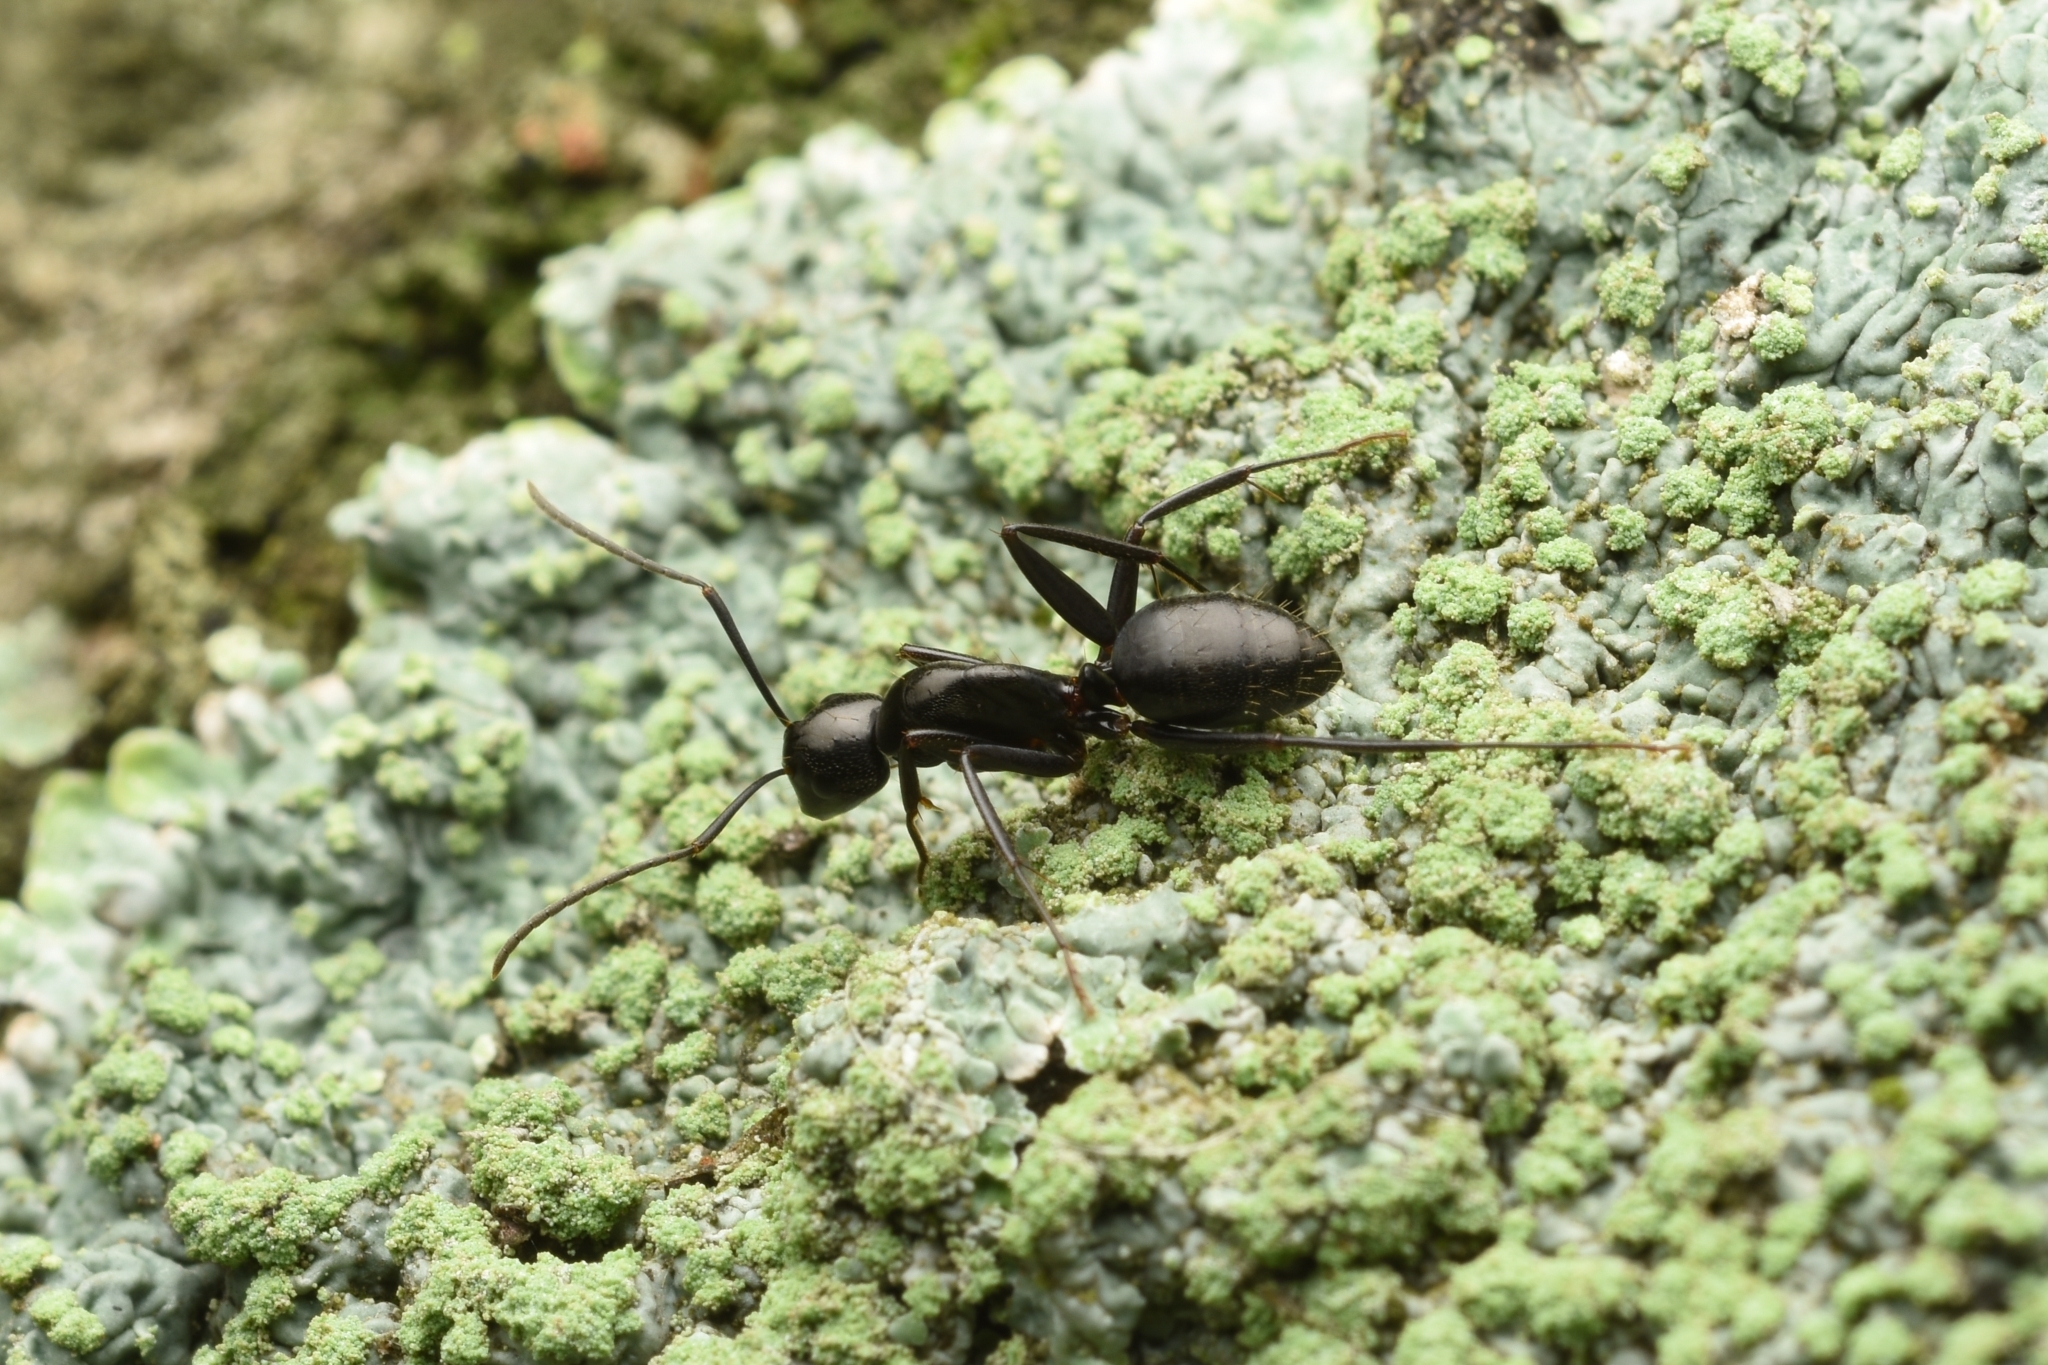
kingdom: Animalia
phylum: Arthropoda
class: Insecta
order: Hymenoptera
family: Formicidae
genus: Camponotus
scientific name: Camponotus concavus
